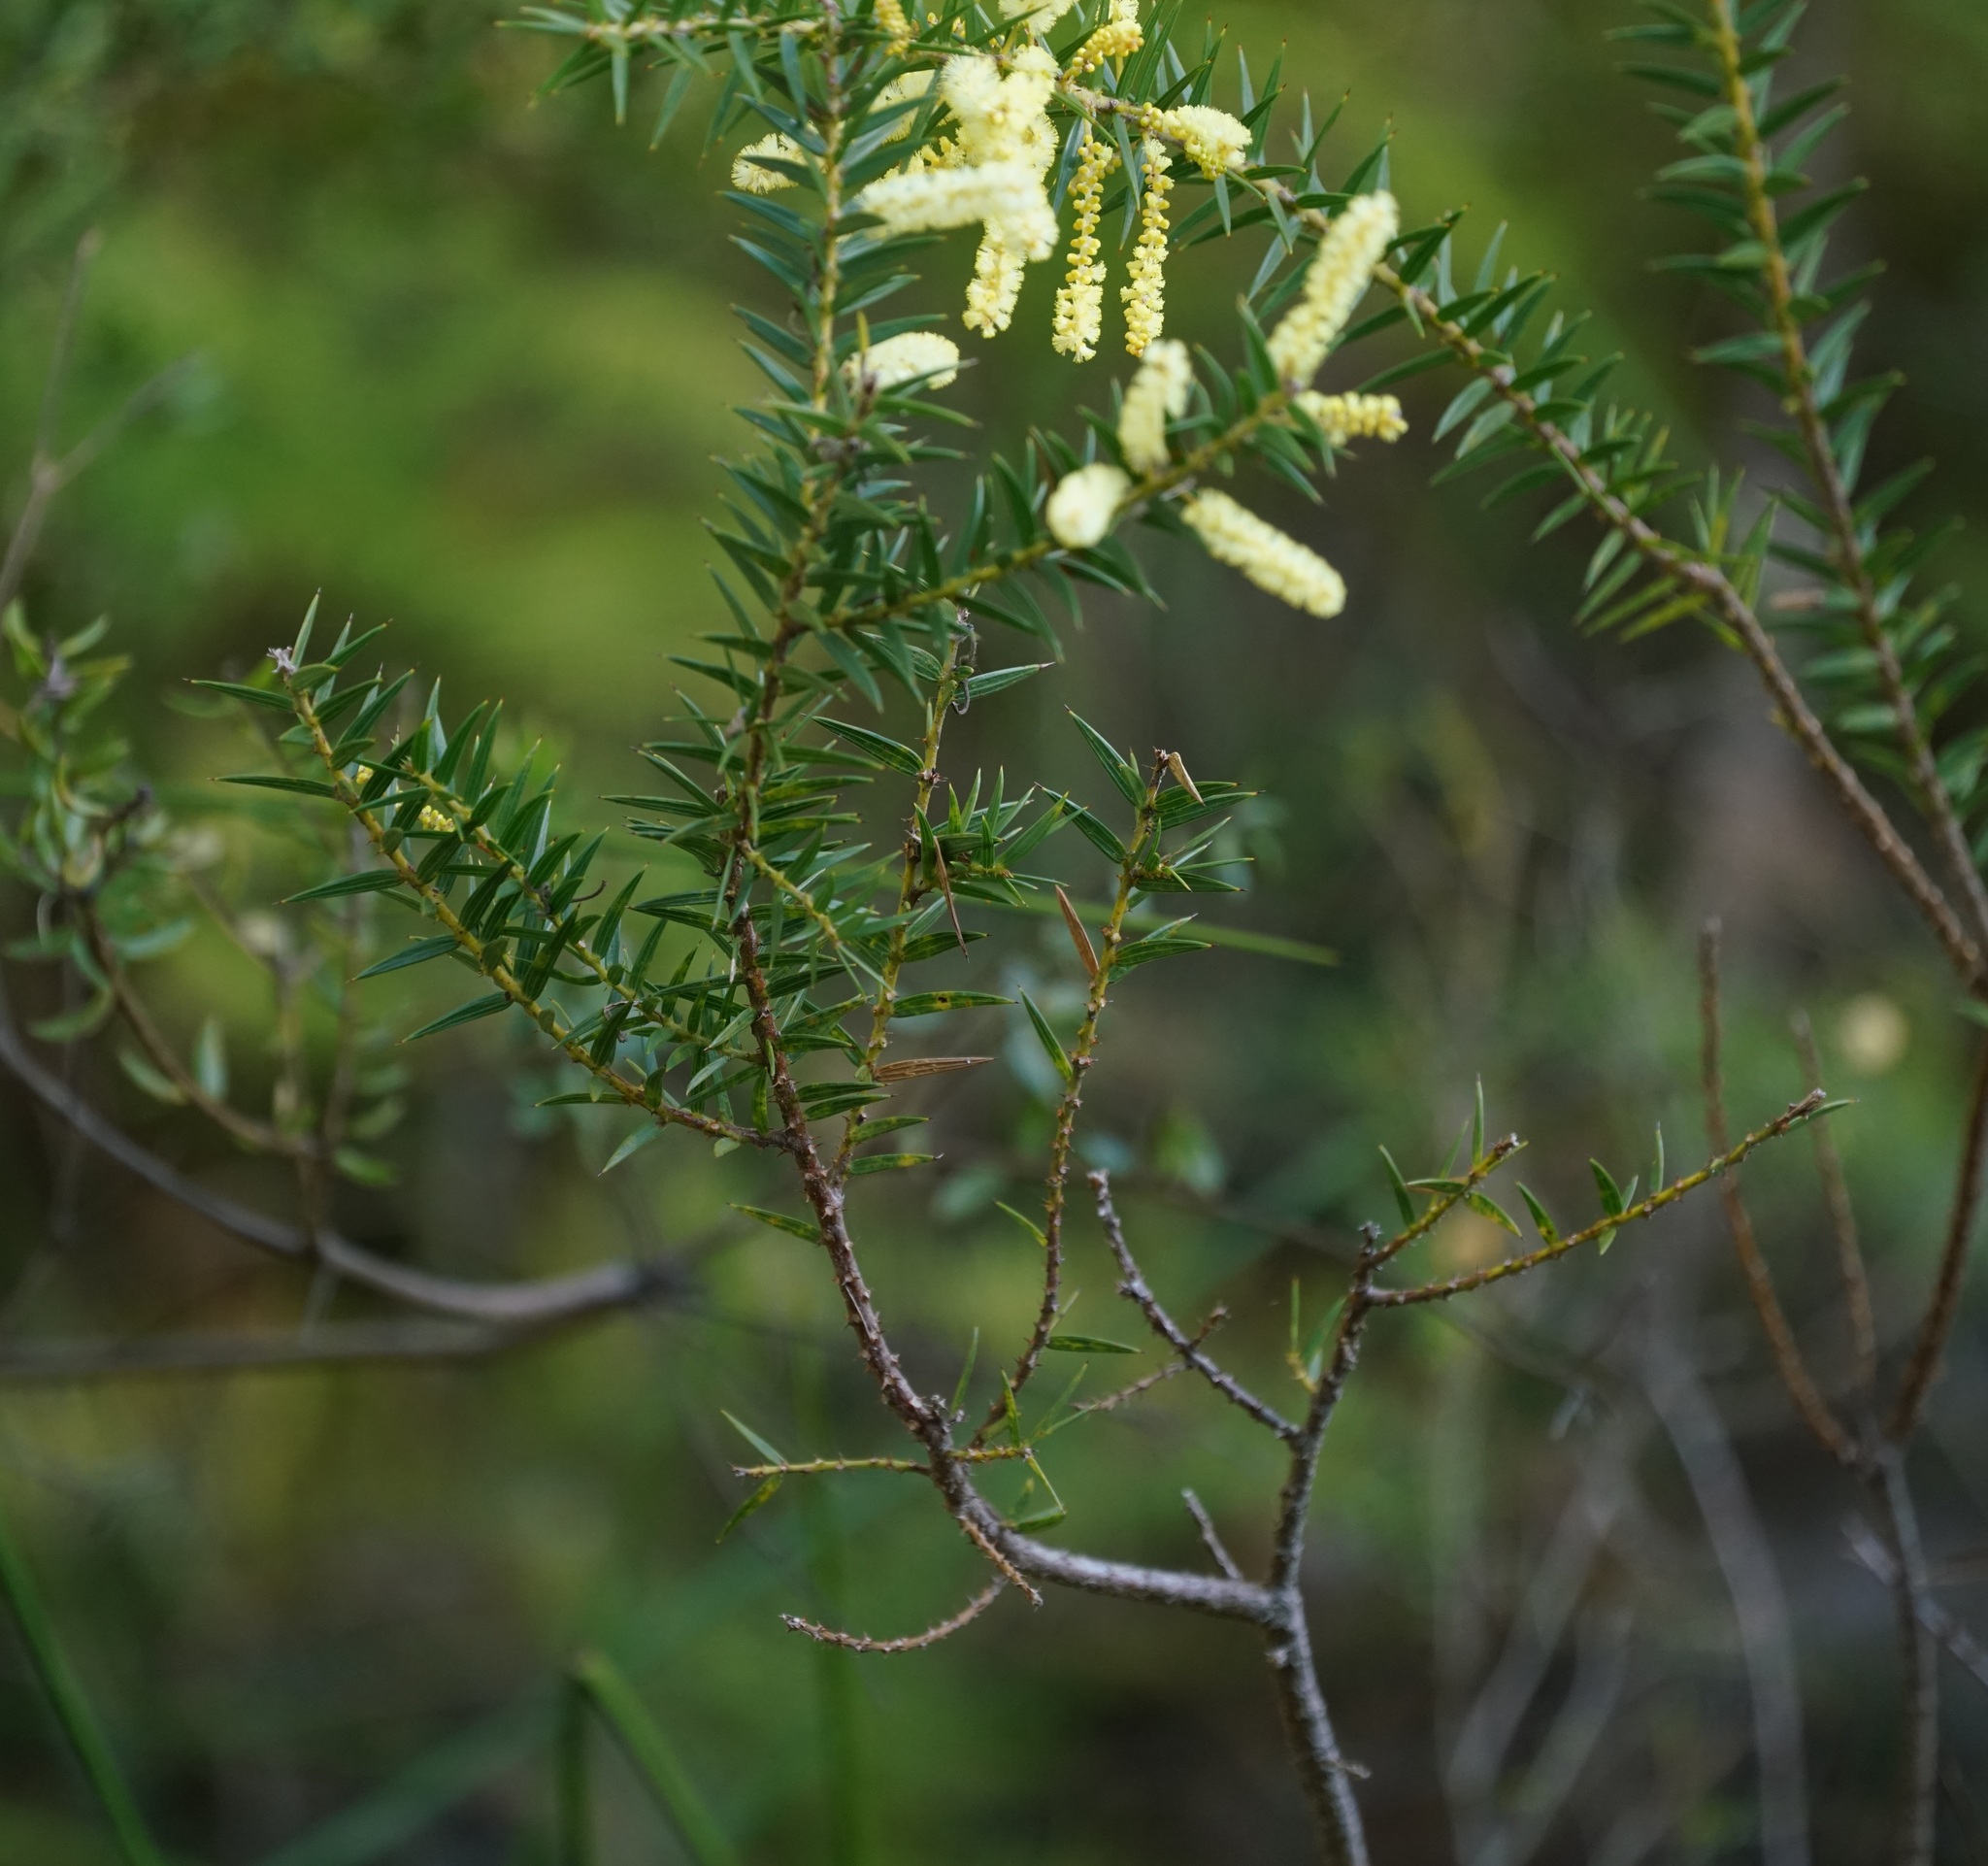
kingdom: Plantae
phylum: Tracheophyta
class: Magnoliopsida
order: Fabales
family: Fabaceae
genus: Acacia
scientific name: Acacia oxycedrus
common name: Spike wattle
